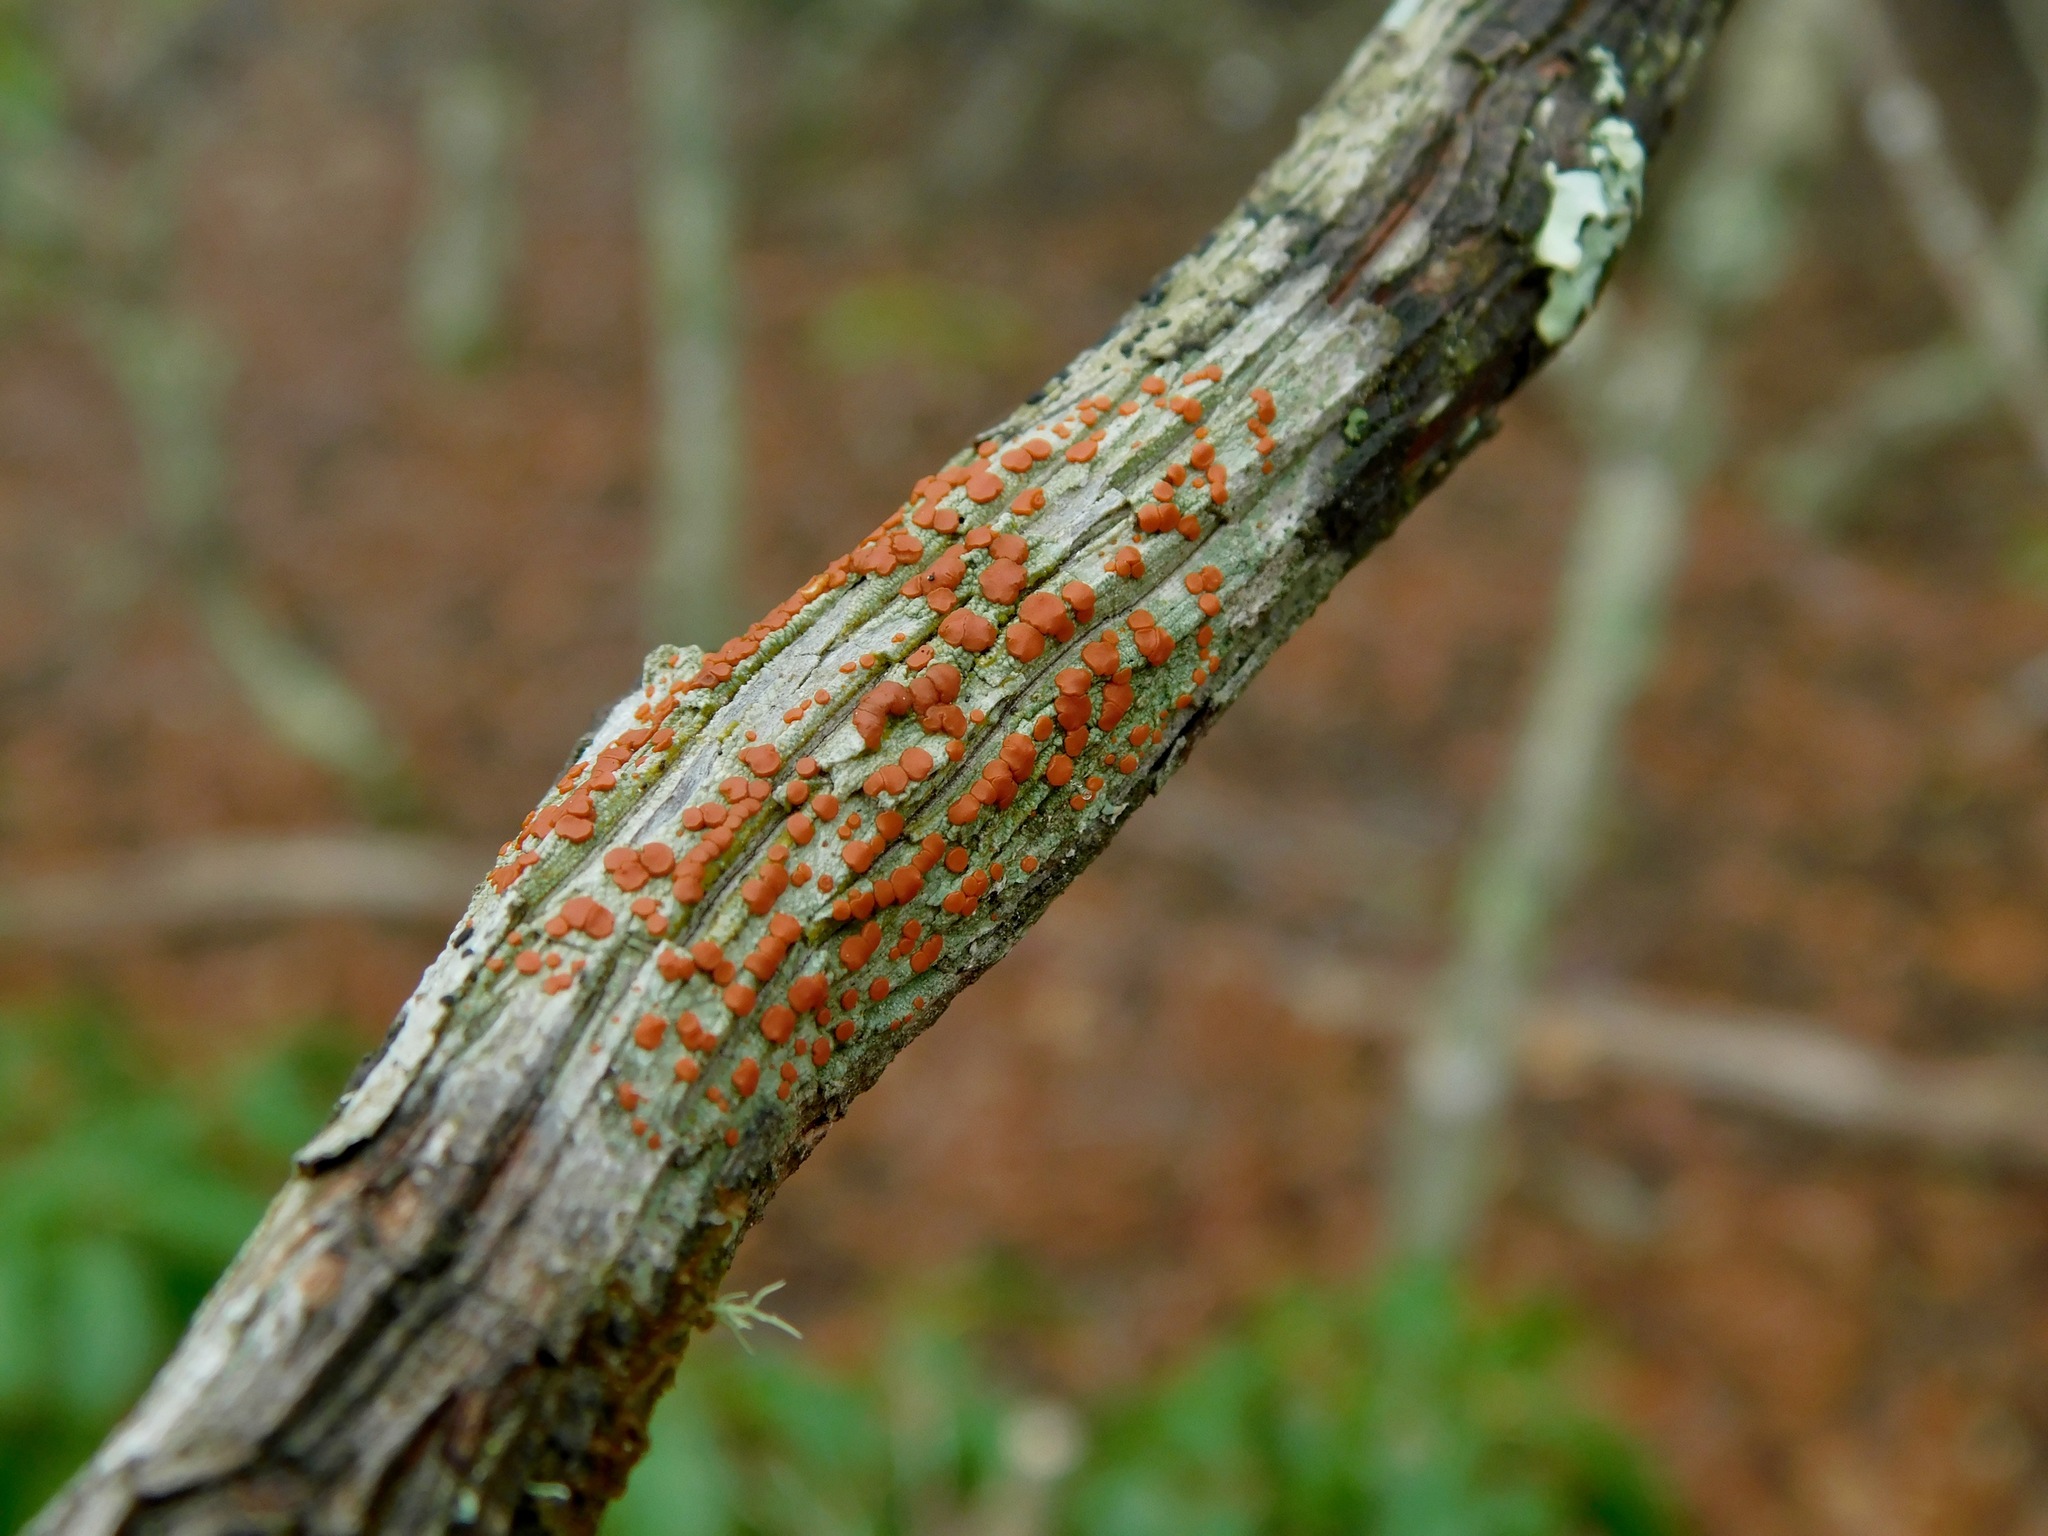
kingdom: Fungi
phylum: Ascomycota
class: Lecanoromycetes
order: Lecanorales
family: Ramboldiaceae
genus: Ramboldia
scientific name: Ramboldia russula
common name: Red heads
